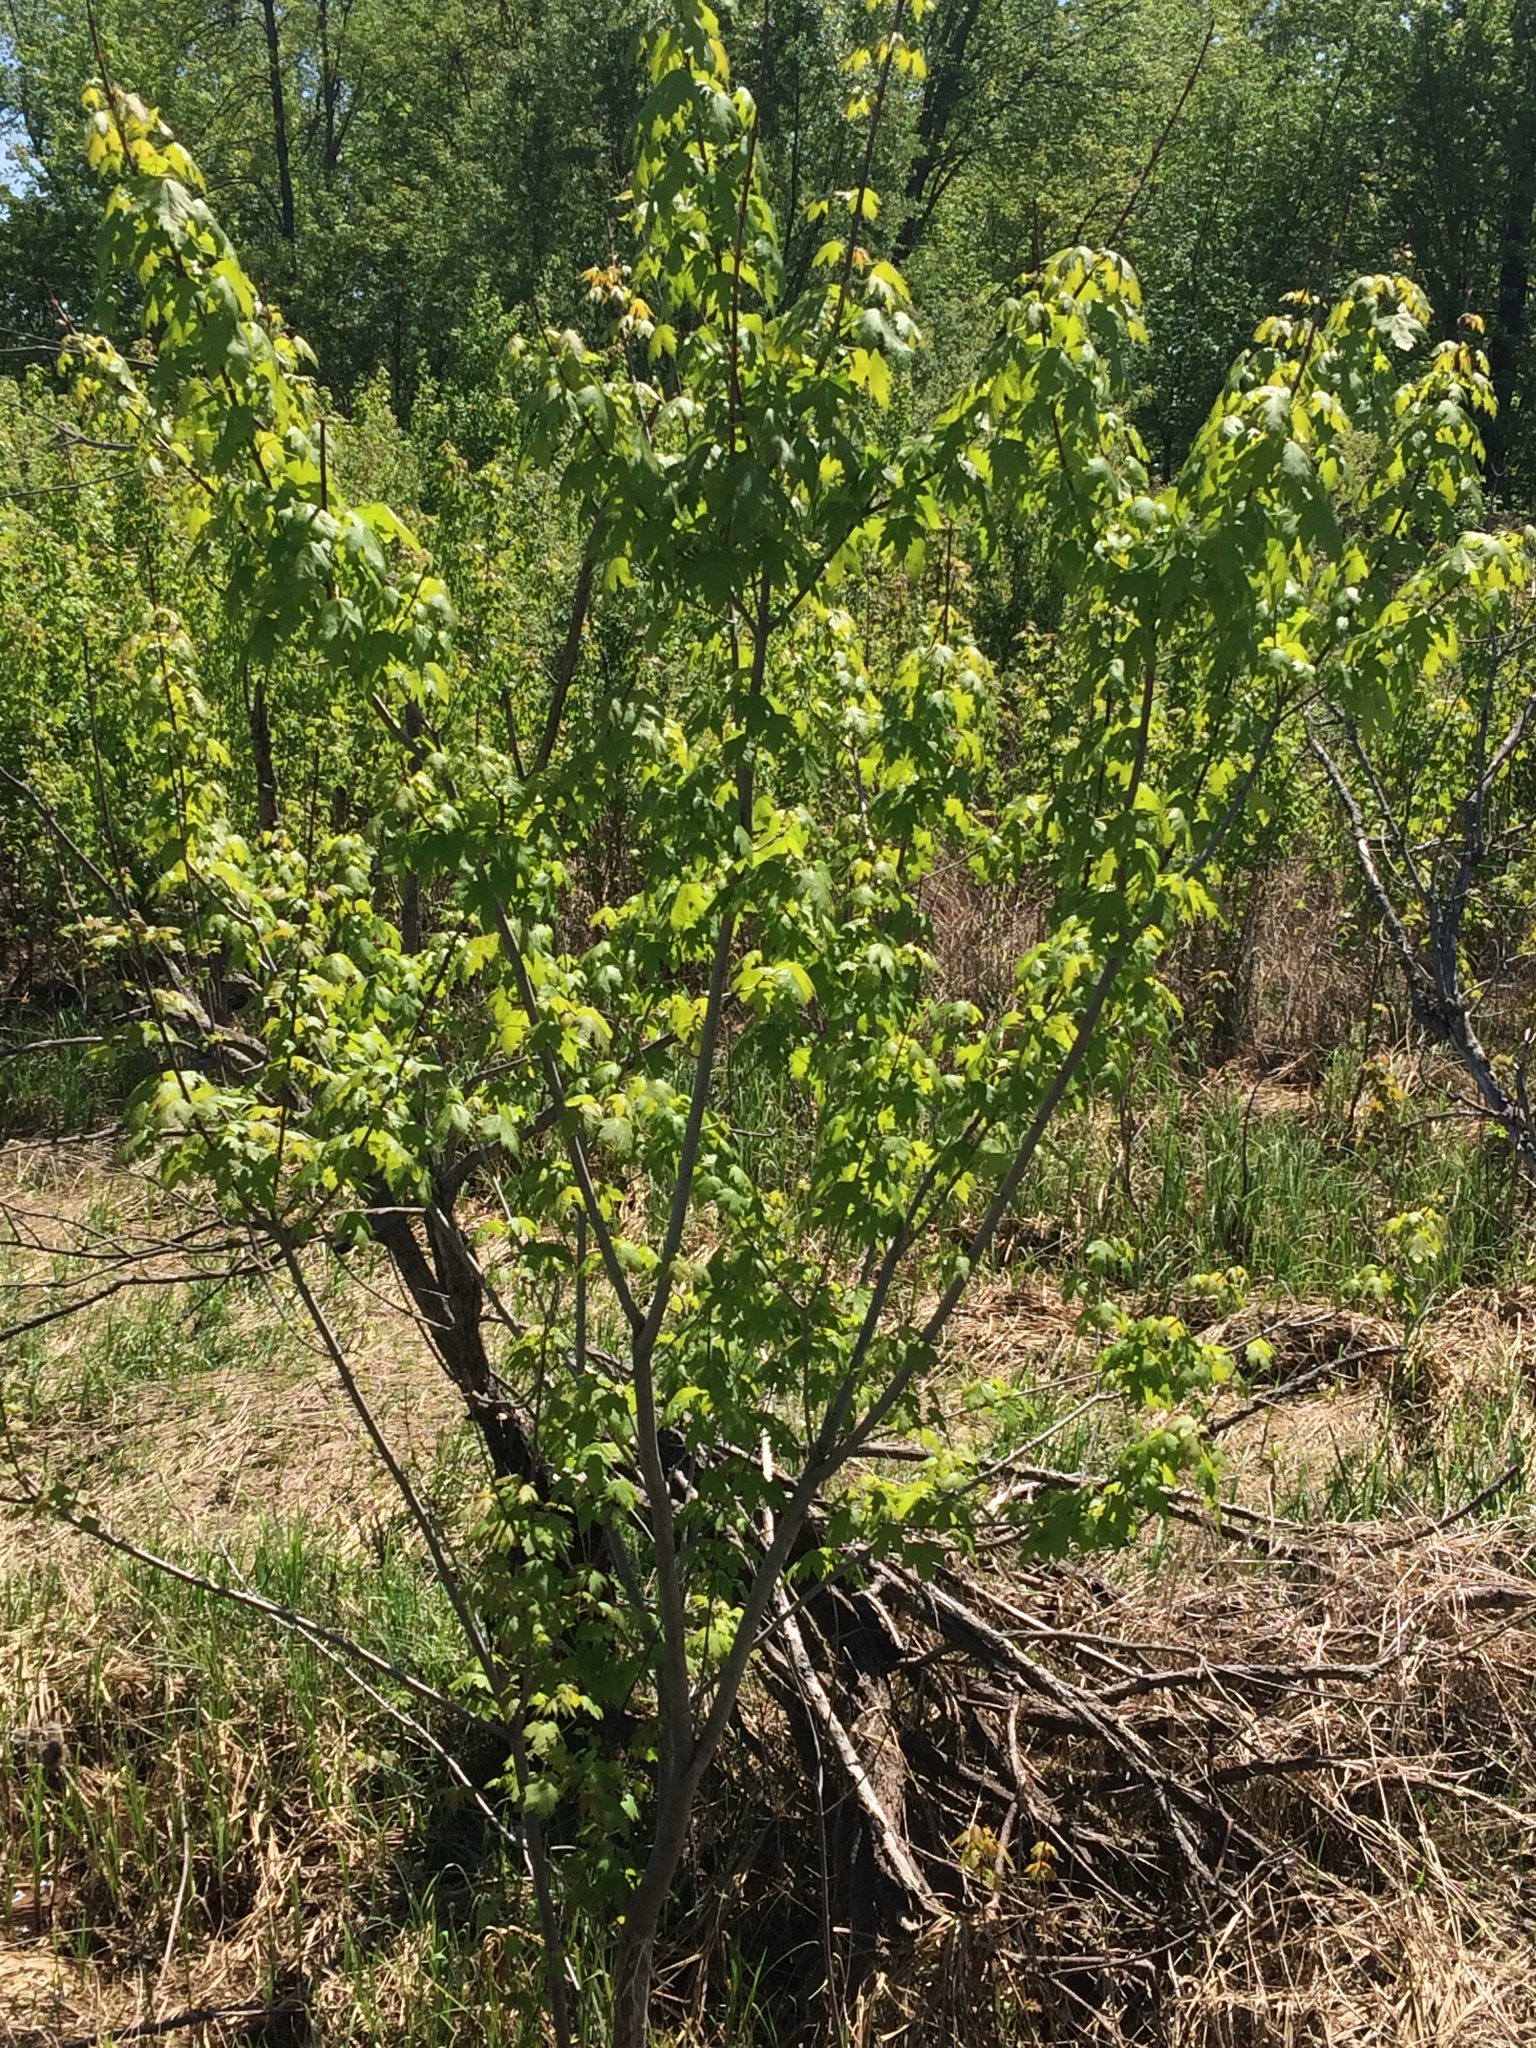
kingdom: Plantae
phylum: Tracheophyta
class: Magnoliopsida
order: Sapindales
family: Sapindaceae
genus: Acer
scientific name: Acer saccharinum
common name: Silver maple
